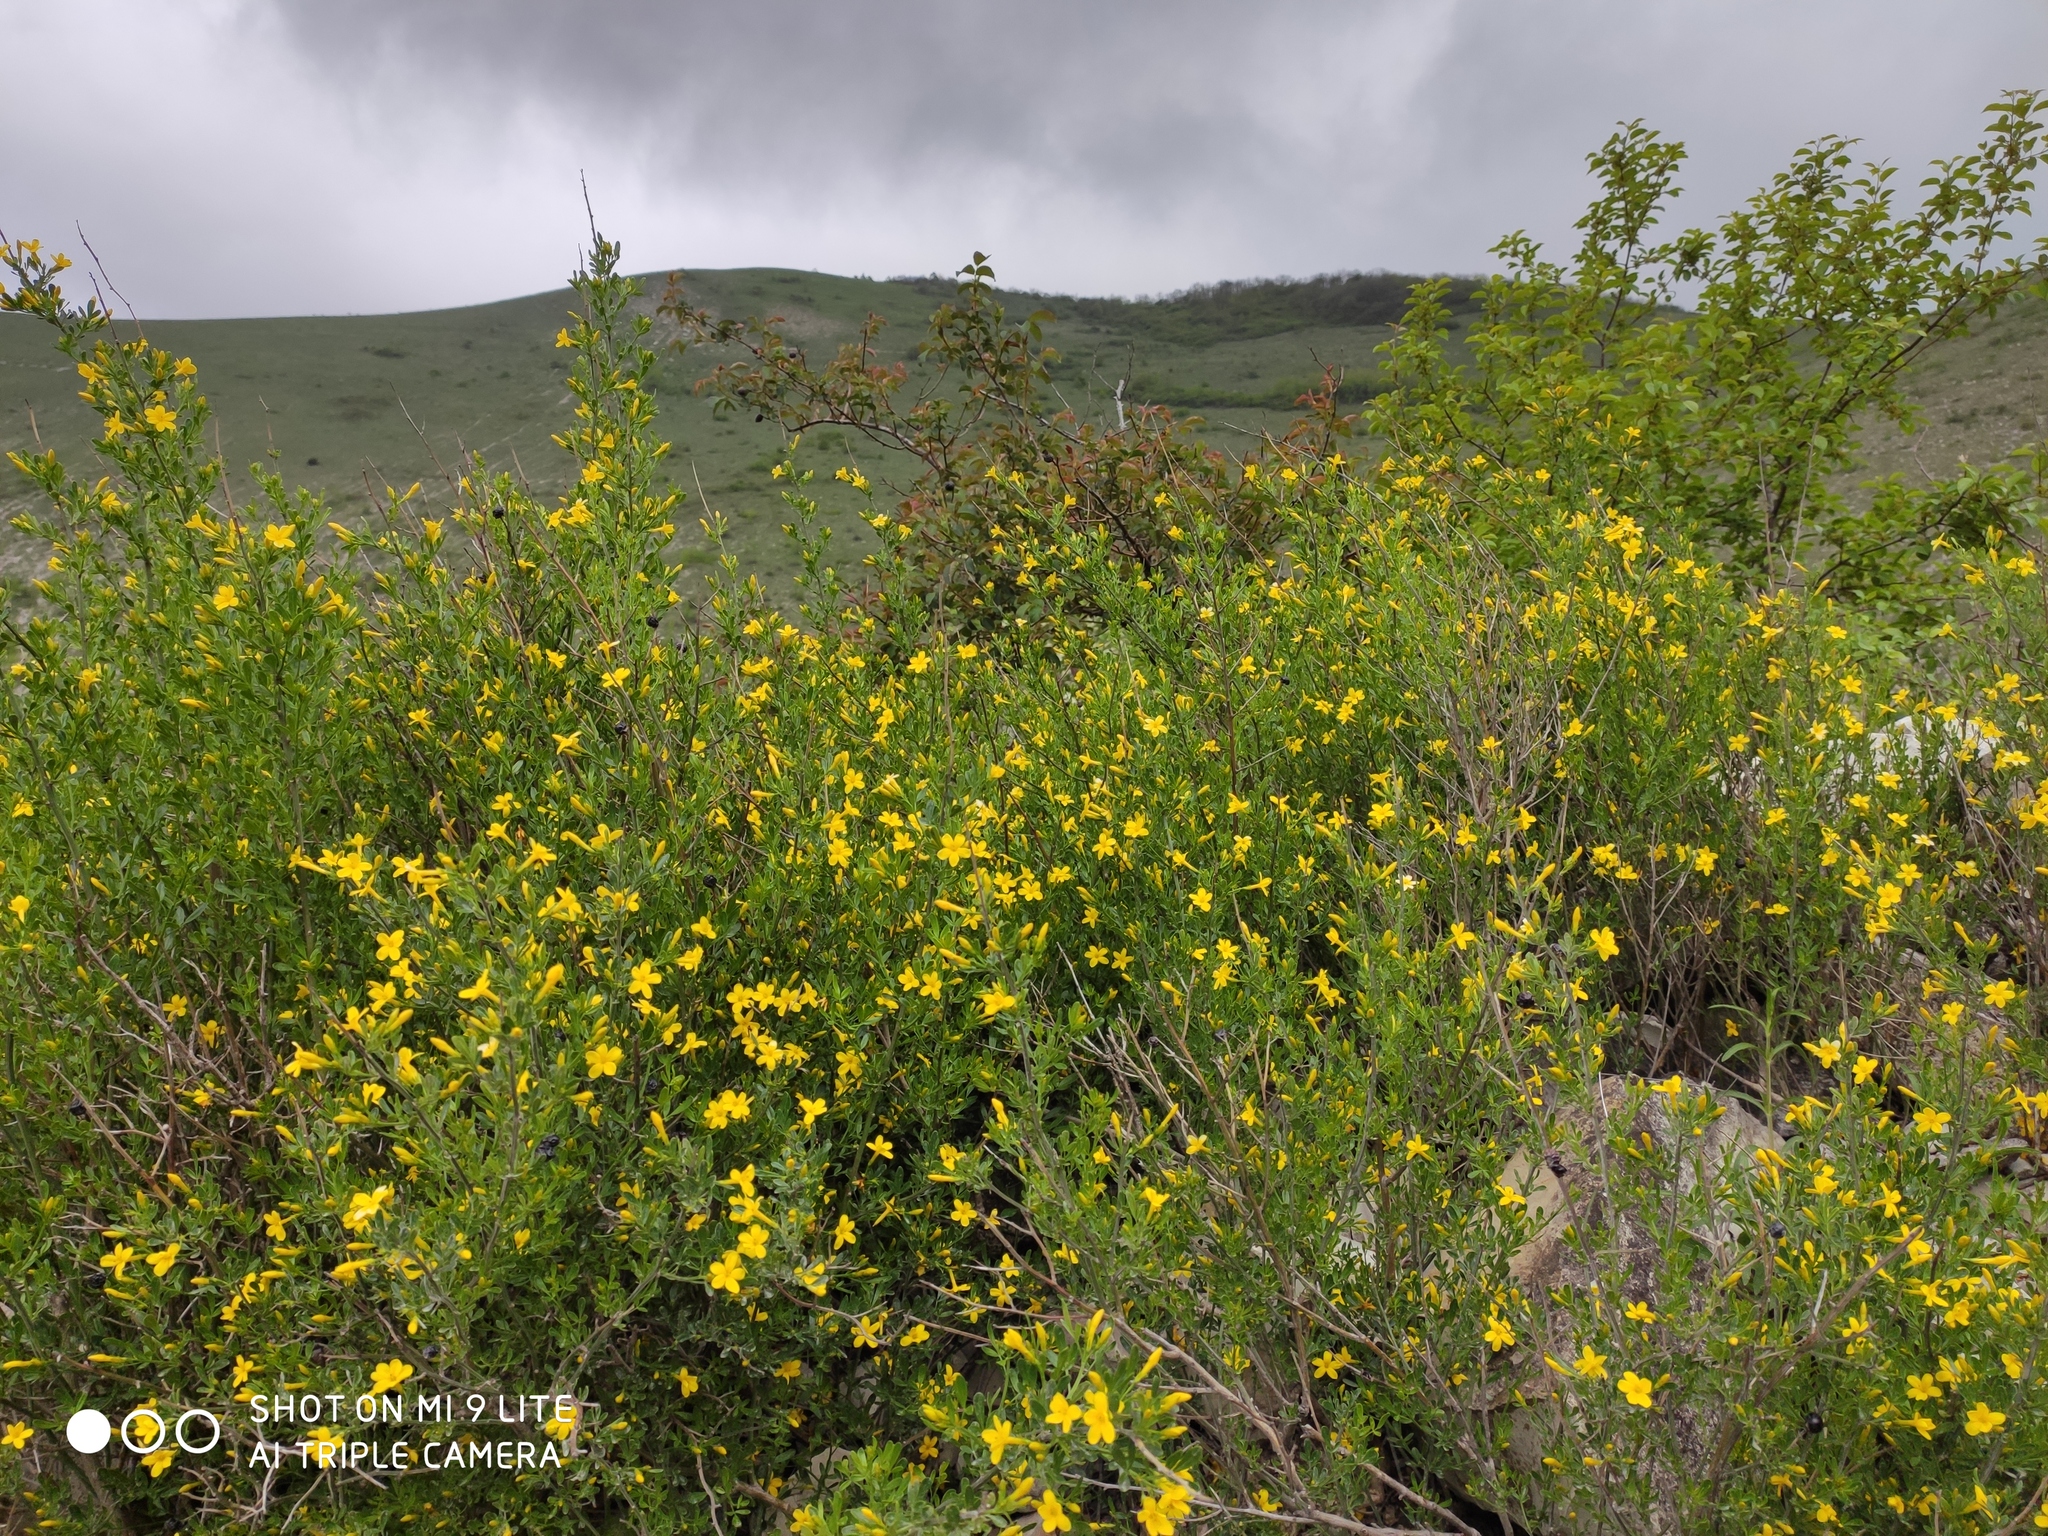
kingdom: Plantae
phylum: Tracheophyta
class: Magnoliopsida
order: Lamiales
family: Oleaceae
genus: Chrysojasminum
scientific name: Chrysojasminum fruticans
